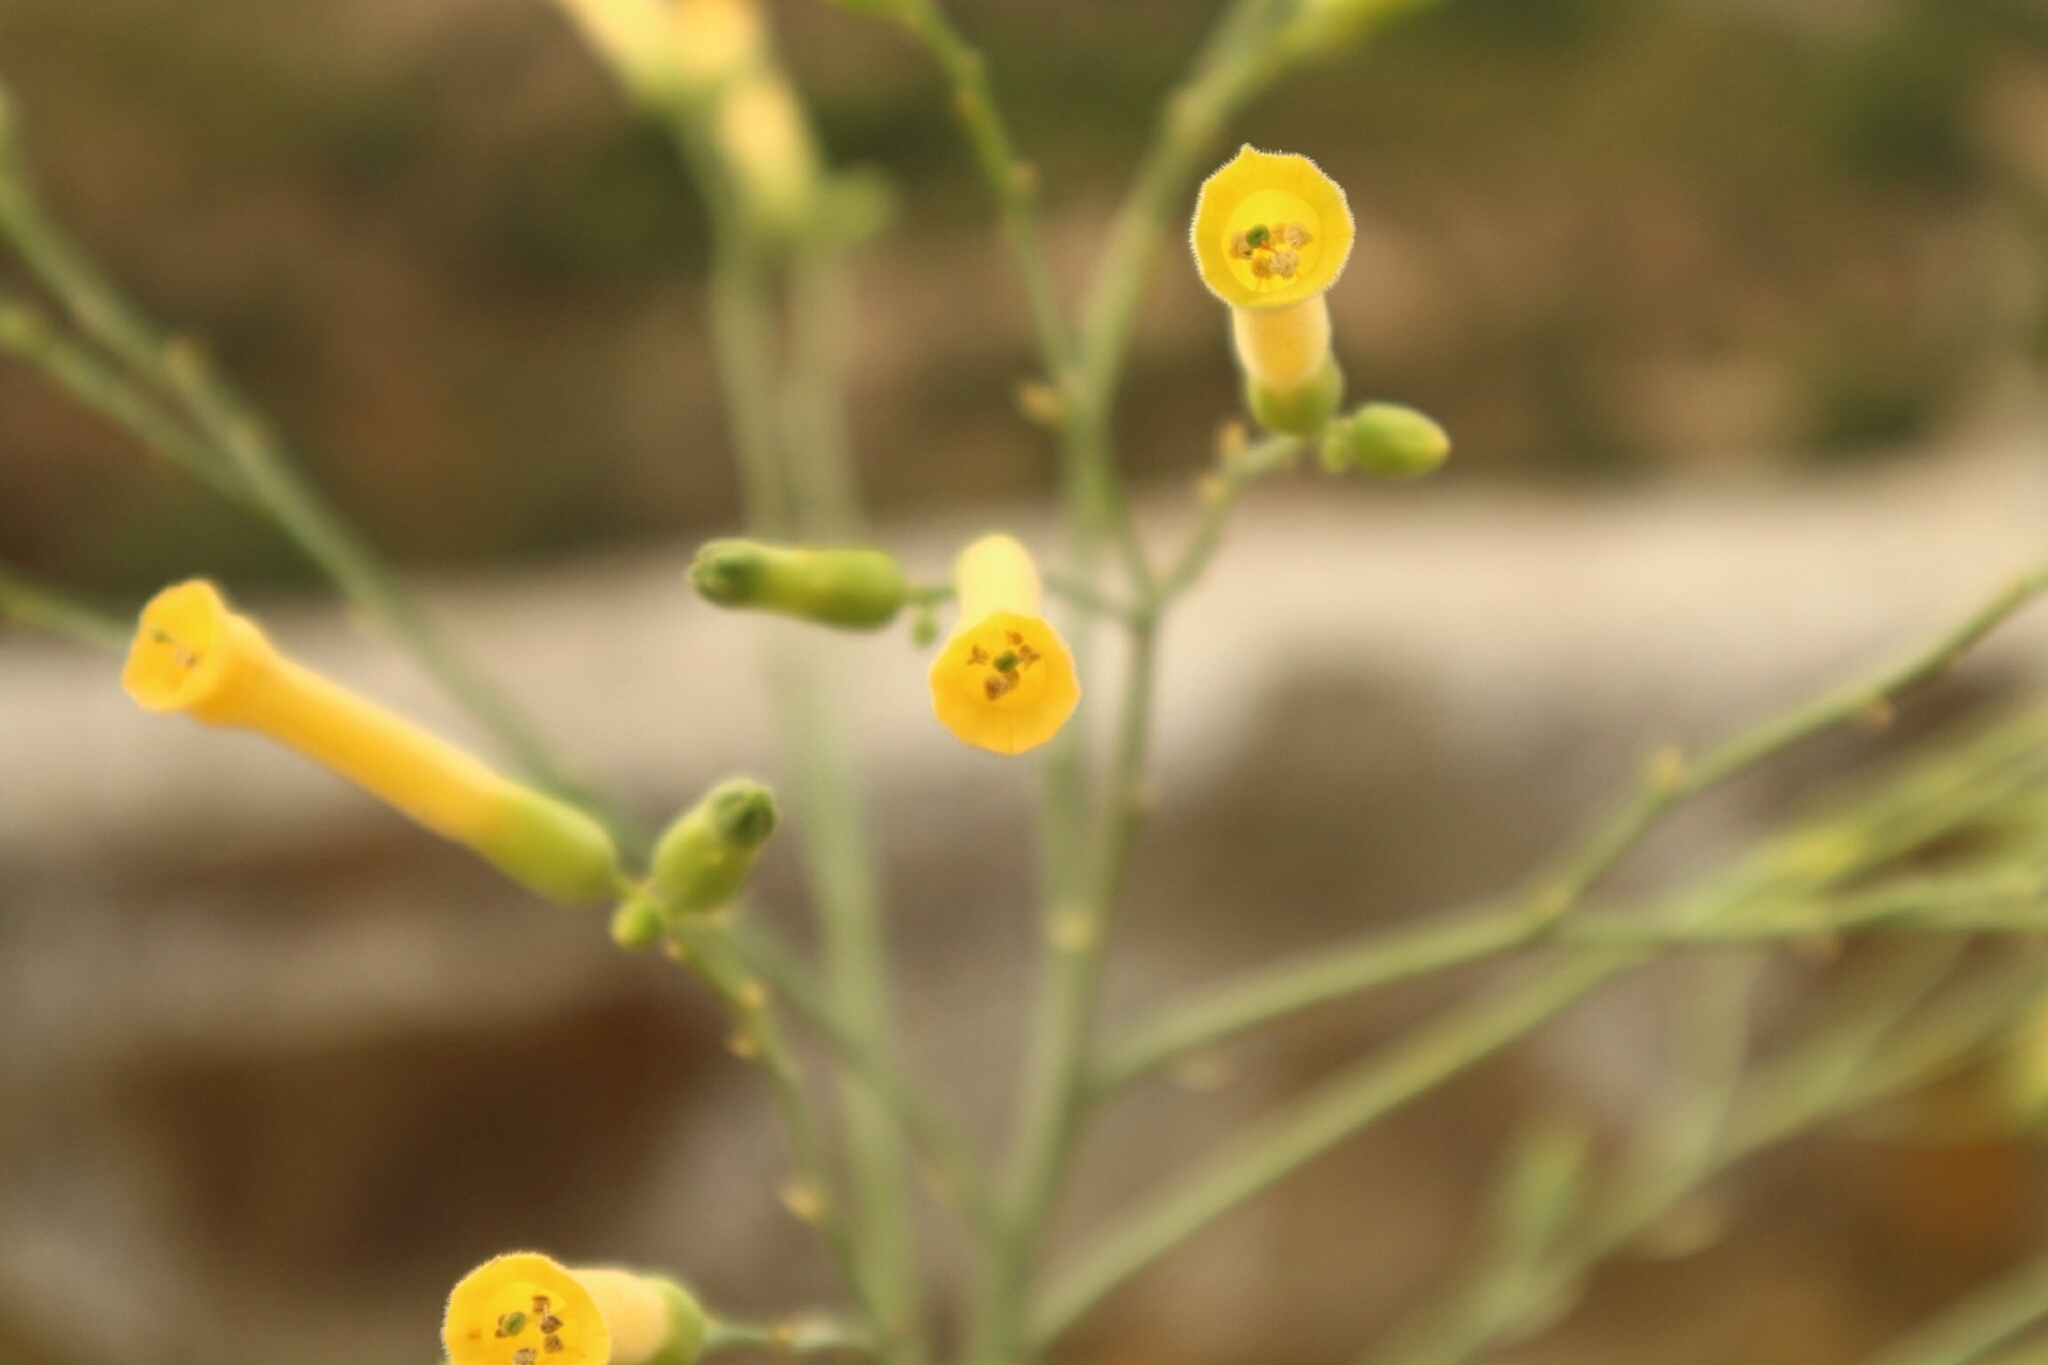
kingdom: Plantae
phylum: Tracheophyta
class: Magnoliopsida
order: Solanales
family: Solanaceae
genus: Nicotiana
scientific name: Nicotiana glauca
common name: Tree tobacco
